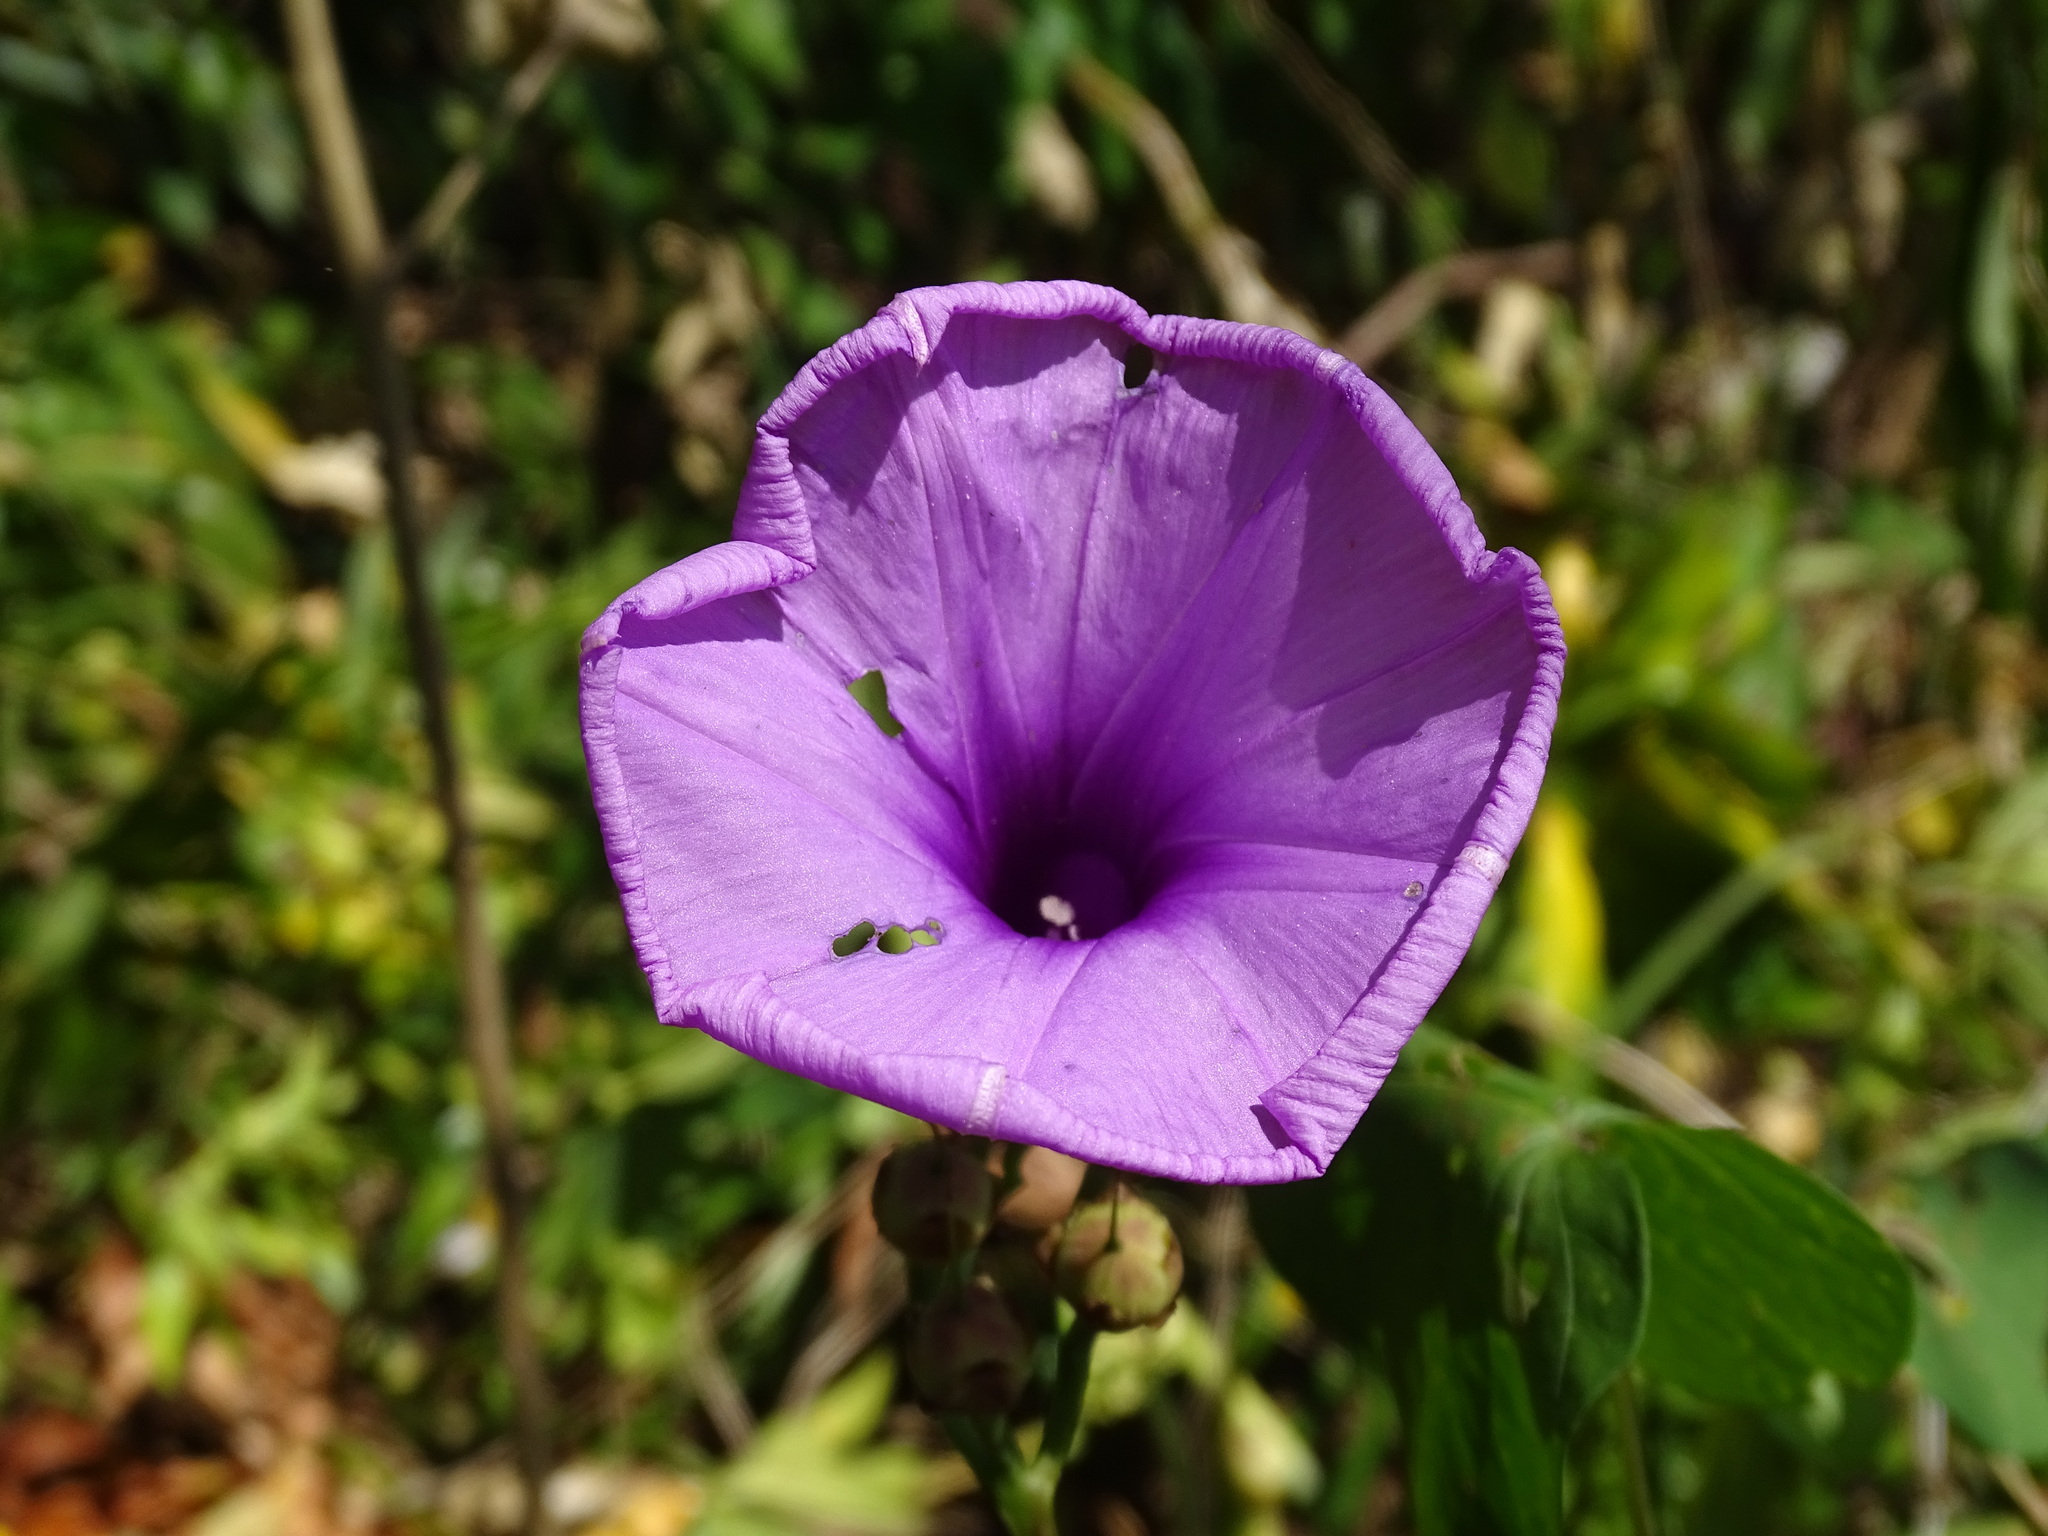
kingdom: Plantae
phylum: Tracheophyta
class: Magnoliopsida
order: Solanales
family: Convolvulaceae
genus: Ipomoea
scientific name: Ipomoea splendor-sylvae
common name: Morning glory
